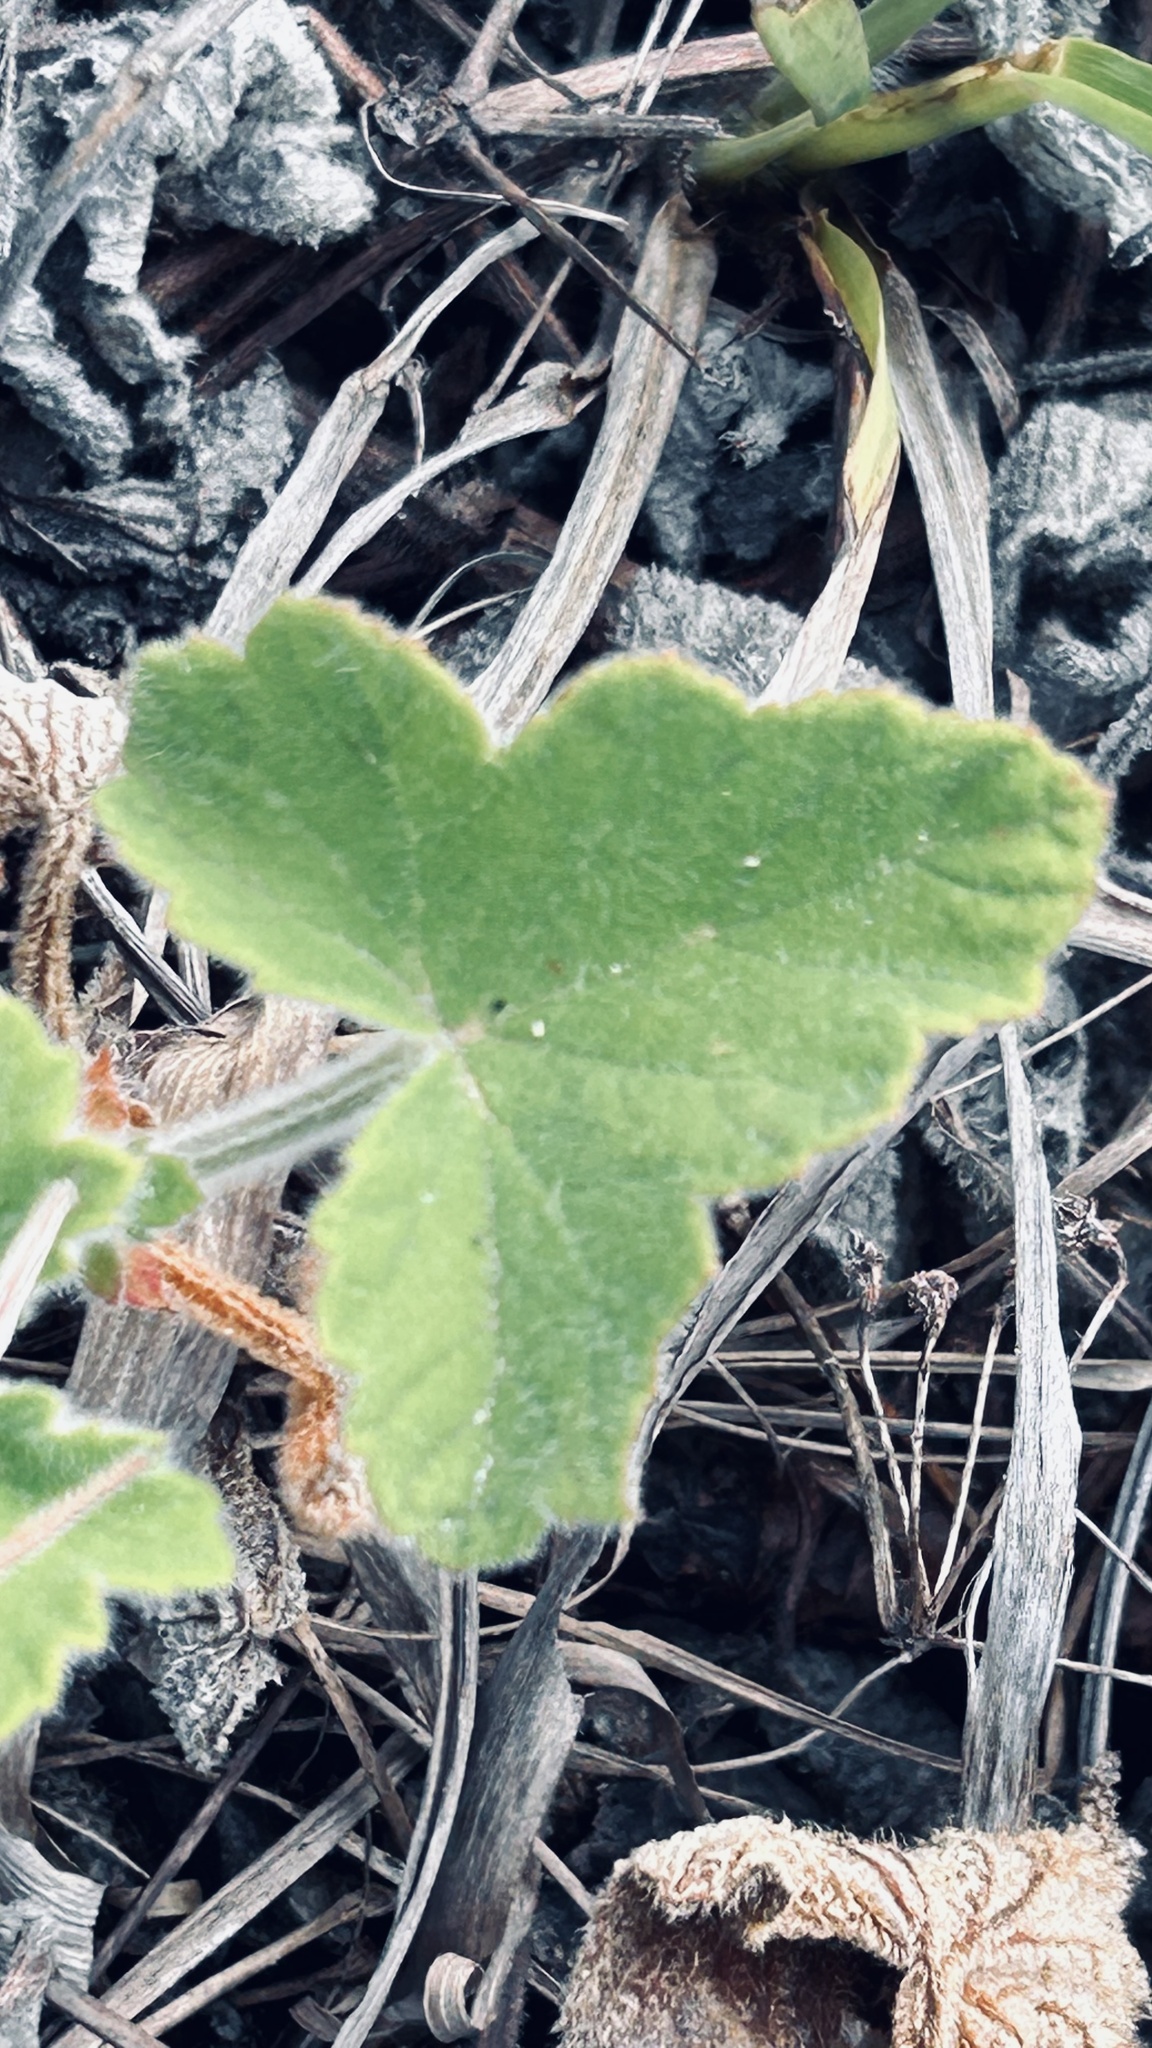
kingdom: Plantae
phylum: Tracheophyta
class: Magnoliopsida
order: Geraniales
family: Geraniaceae
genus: Pelargonium
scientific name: Pelargonium tomentosum
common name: Peppermint-scented geranium
